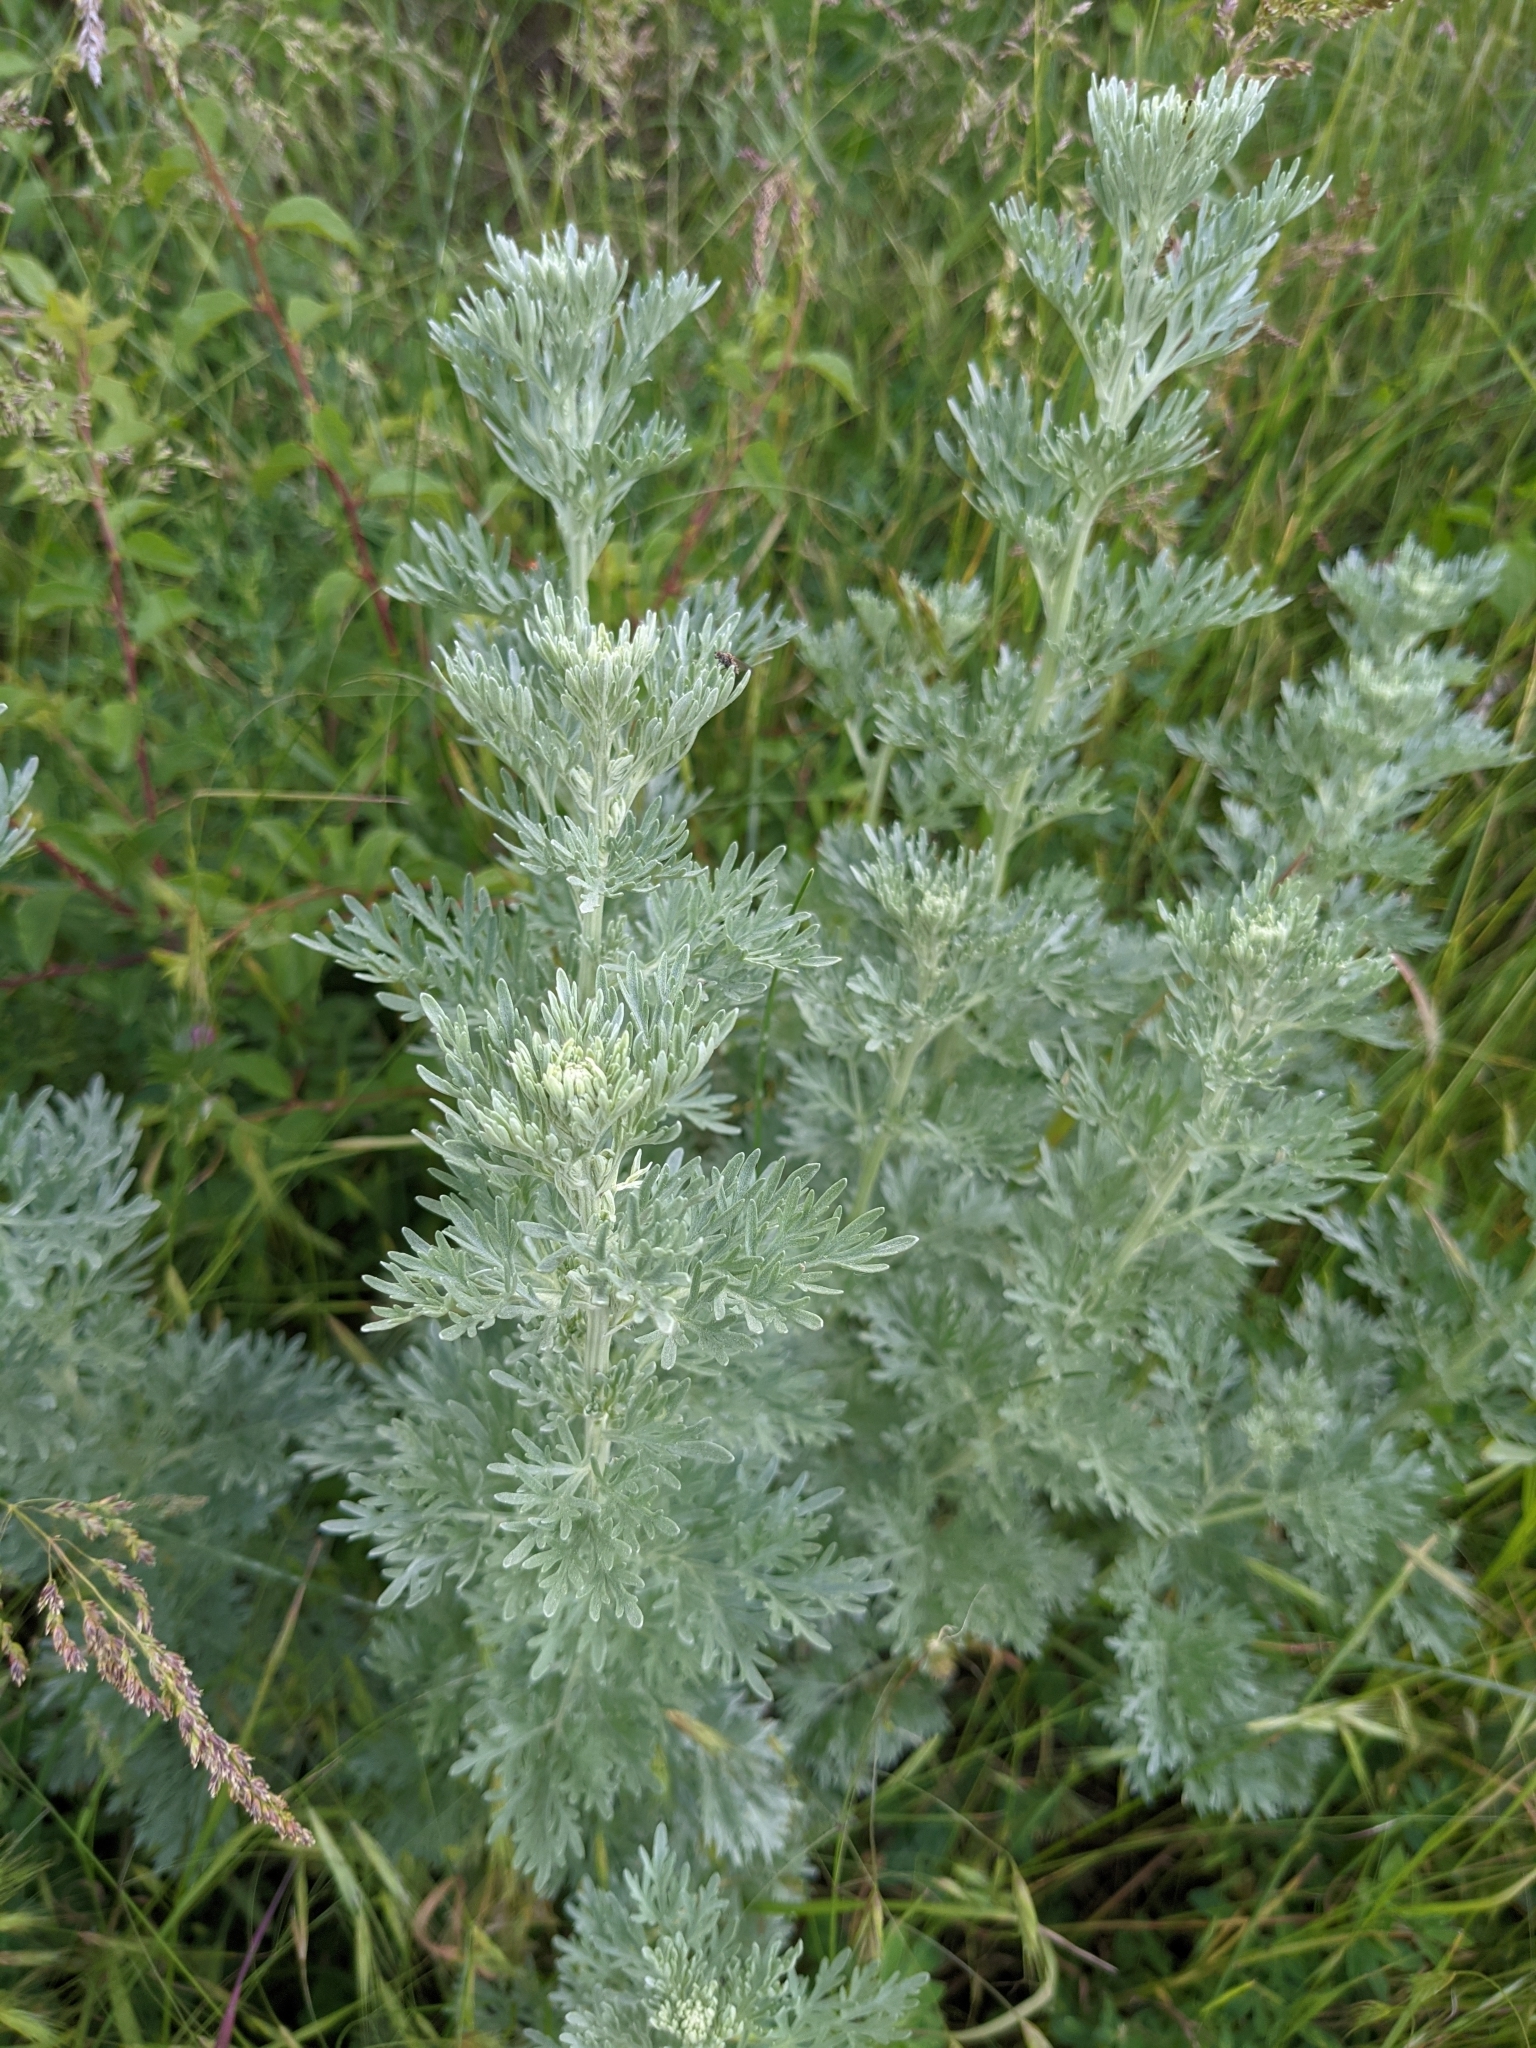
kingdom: Plantae
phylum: Tracheophyta
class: Magnoliopsida
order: Asterales
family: Asteraceae
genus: Artemisia
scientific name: Artemisia absinthium
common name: Wormwood
